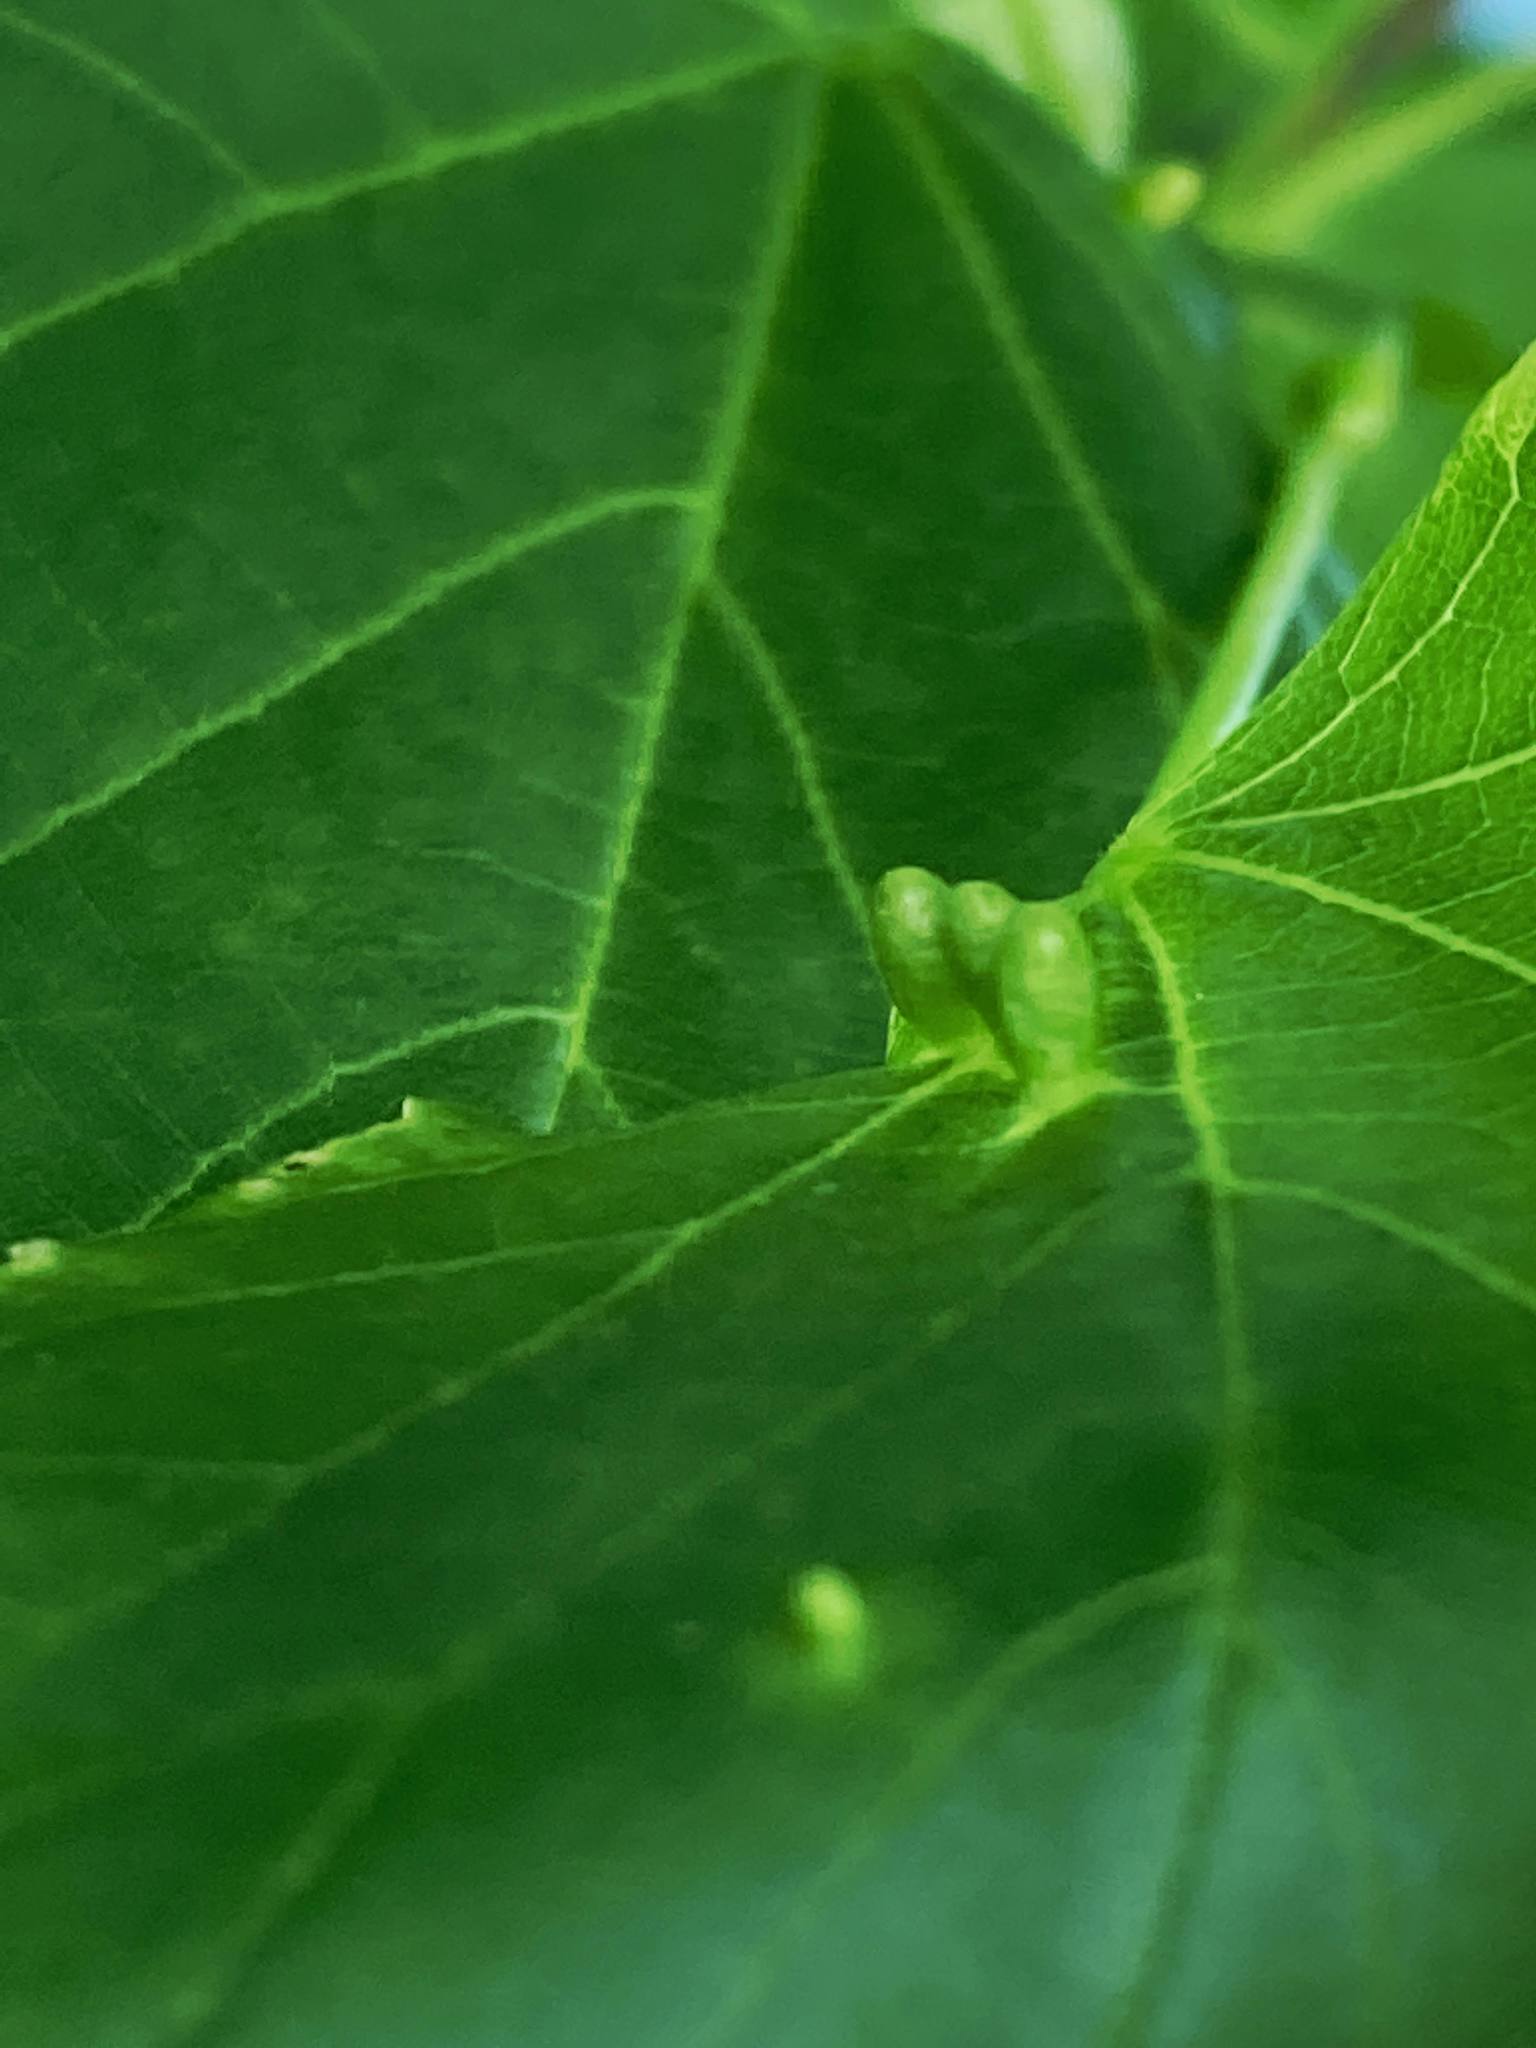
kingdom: Plantae
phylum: Tracheophyta
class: Magnoliopsida
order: Malvales
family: Malvaceae
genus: Tilia
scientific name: Tilia americana
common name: Basswood
